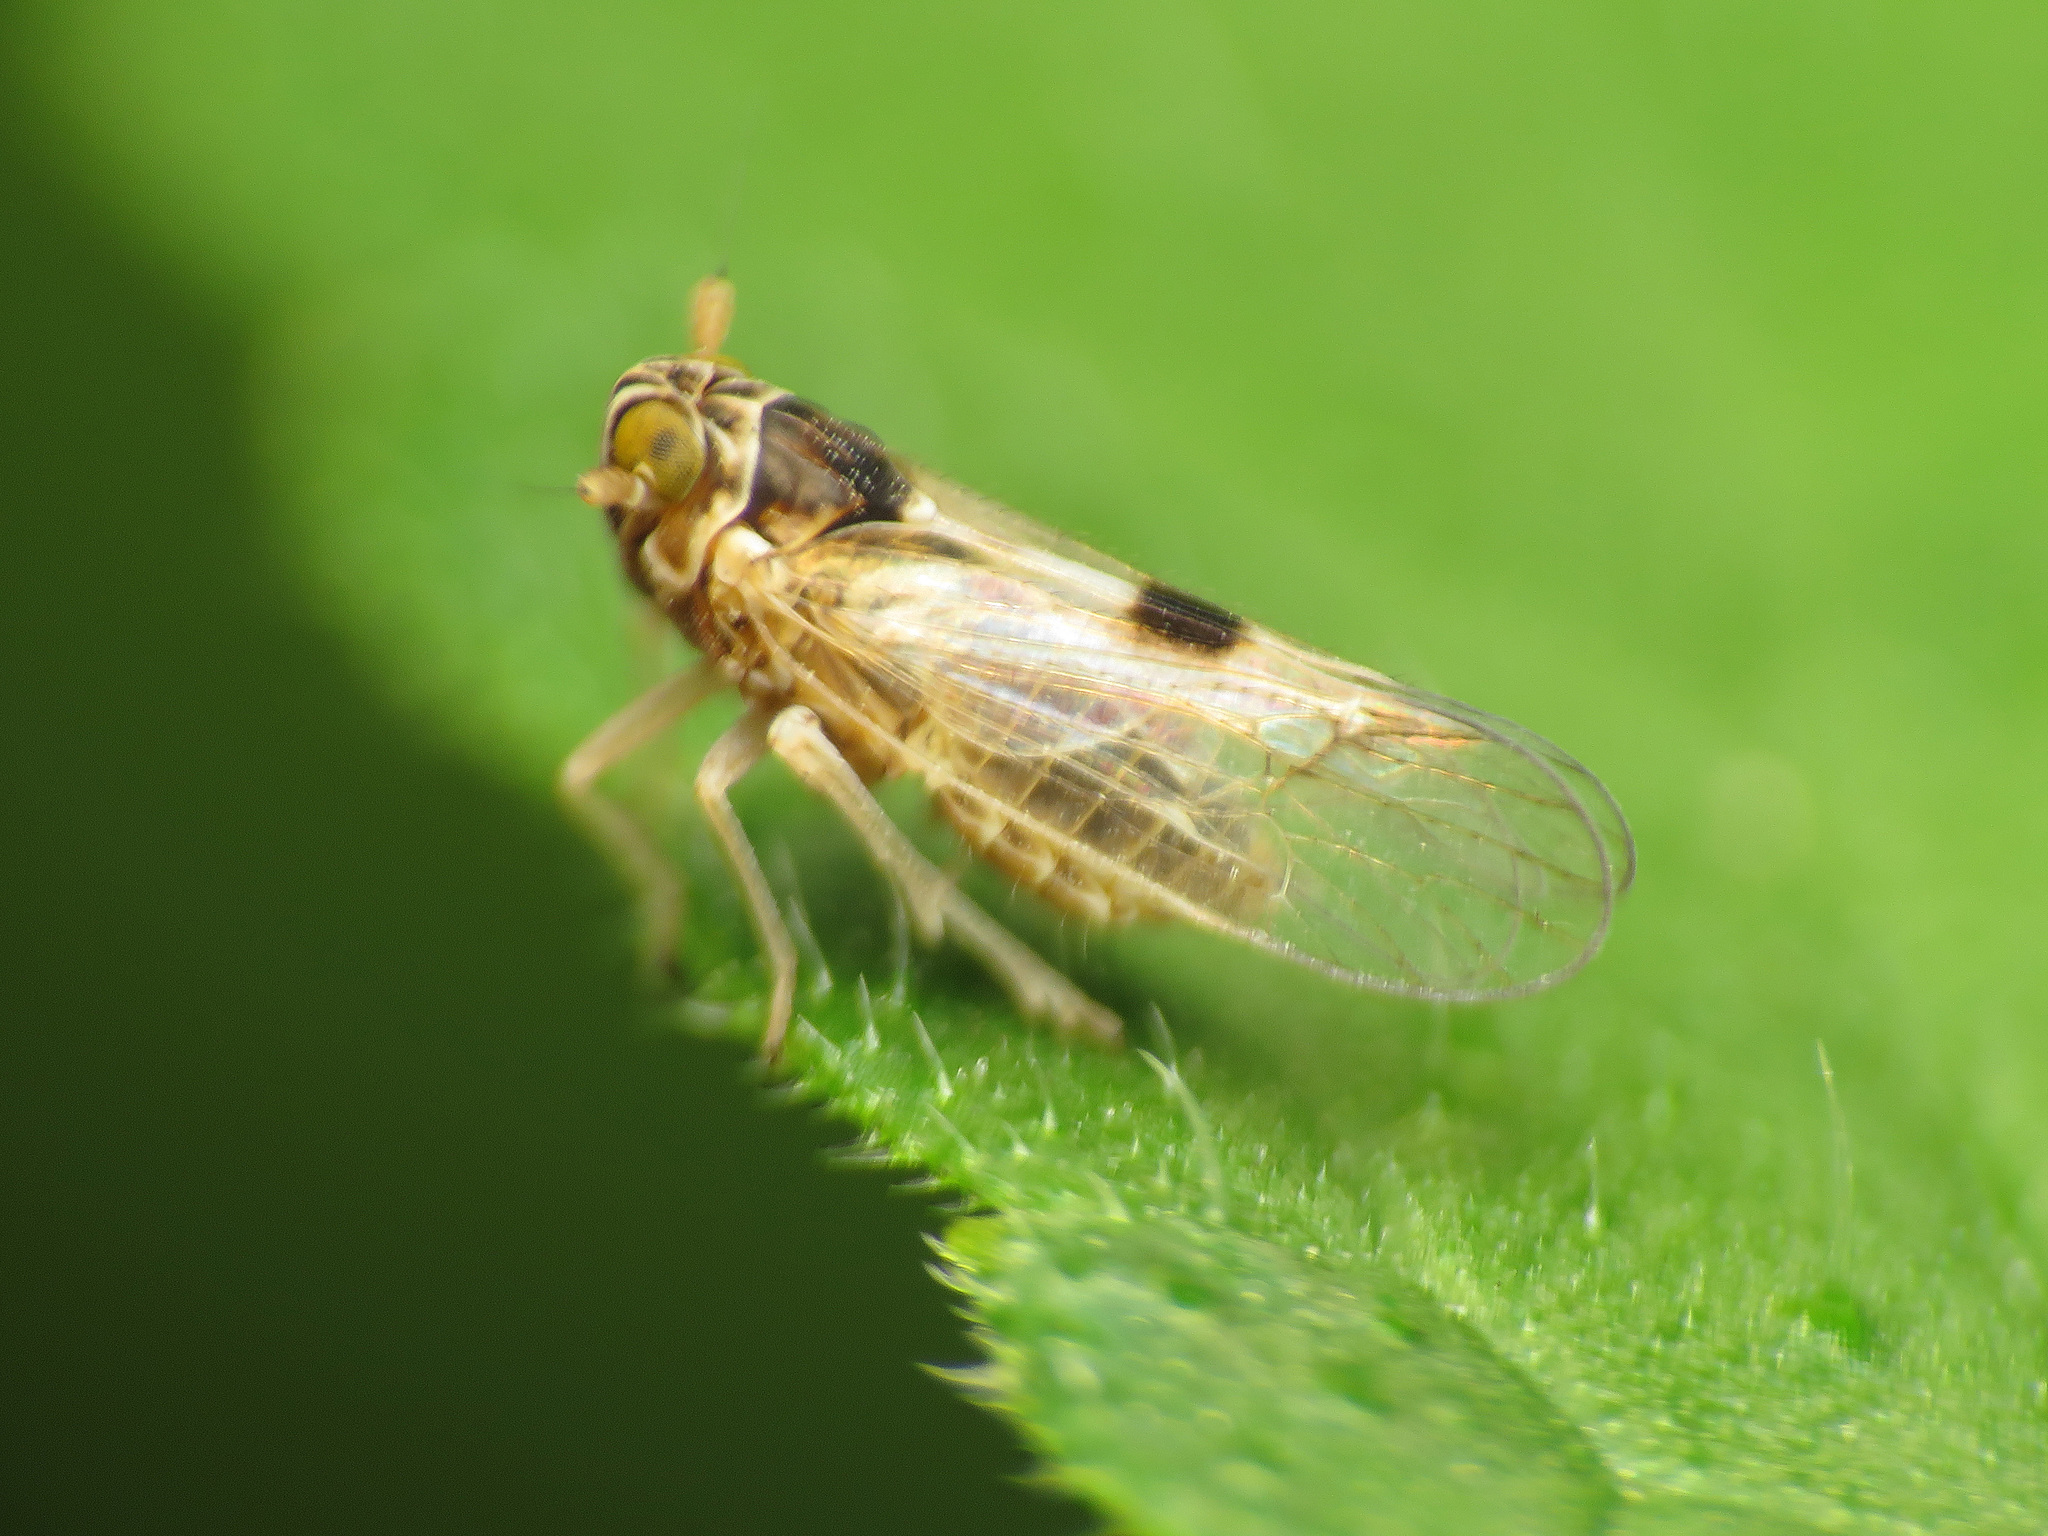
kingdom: Animalia
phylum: Arthropoda
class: Insecta
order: Hemiptera
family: Delphacidae
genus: Chionomus
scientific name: Chionomus
